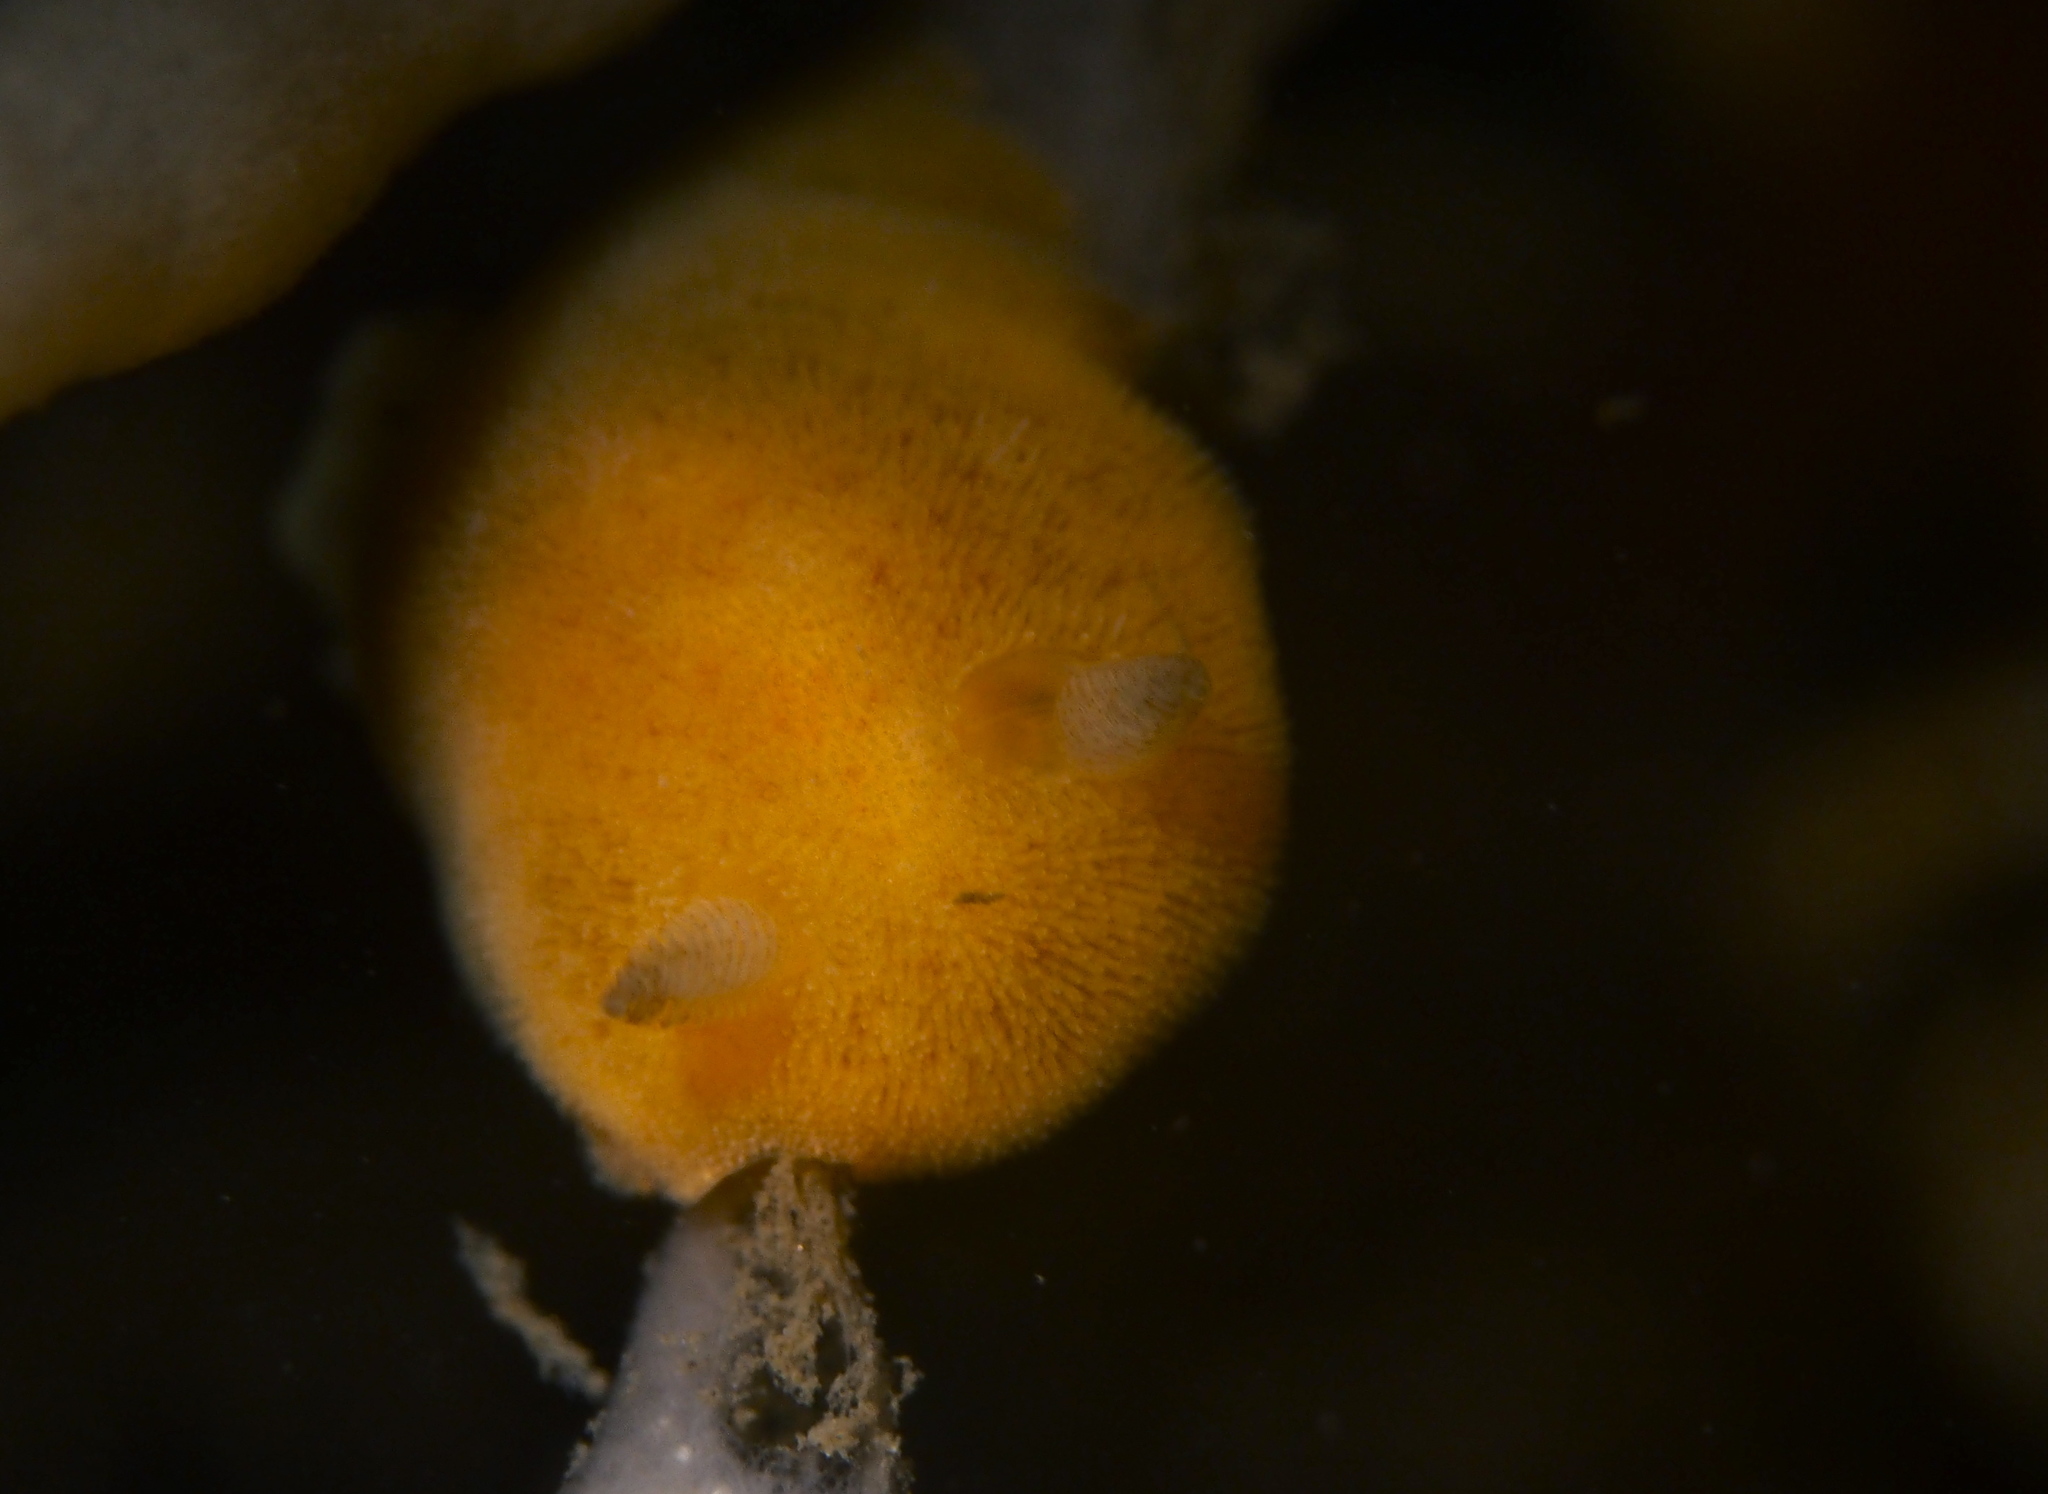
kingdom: Animalia
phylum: Mollusca
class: Gastropoda
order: Nudibranchia
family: Discodorididae
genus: Jorunna
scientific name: Jorunna tomentosa
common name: Grey sea slug
